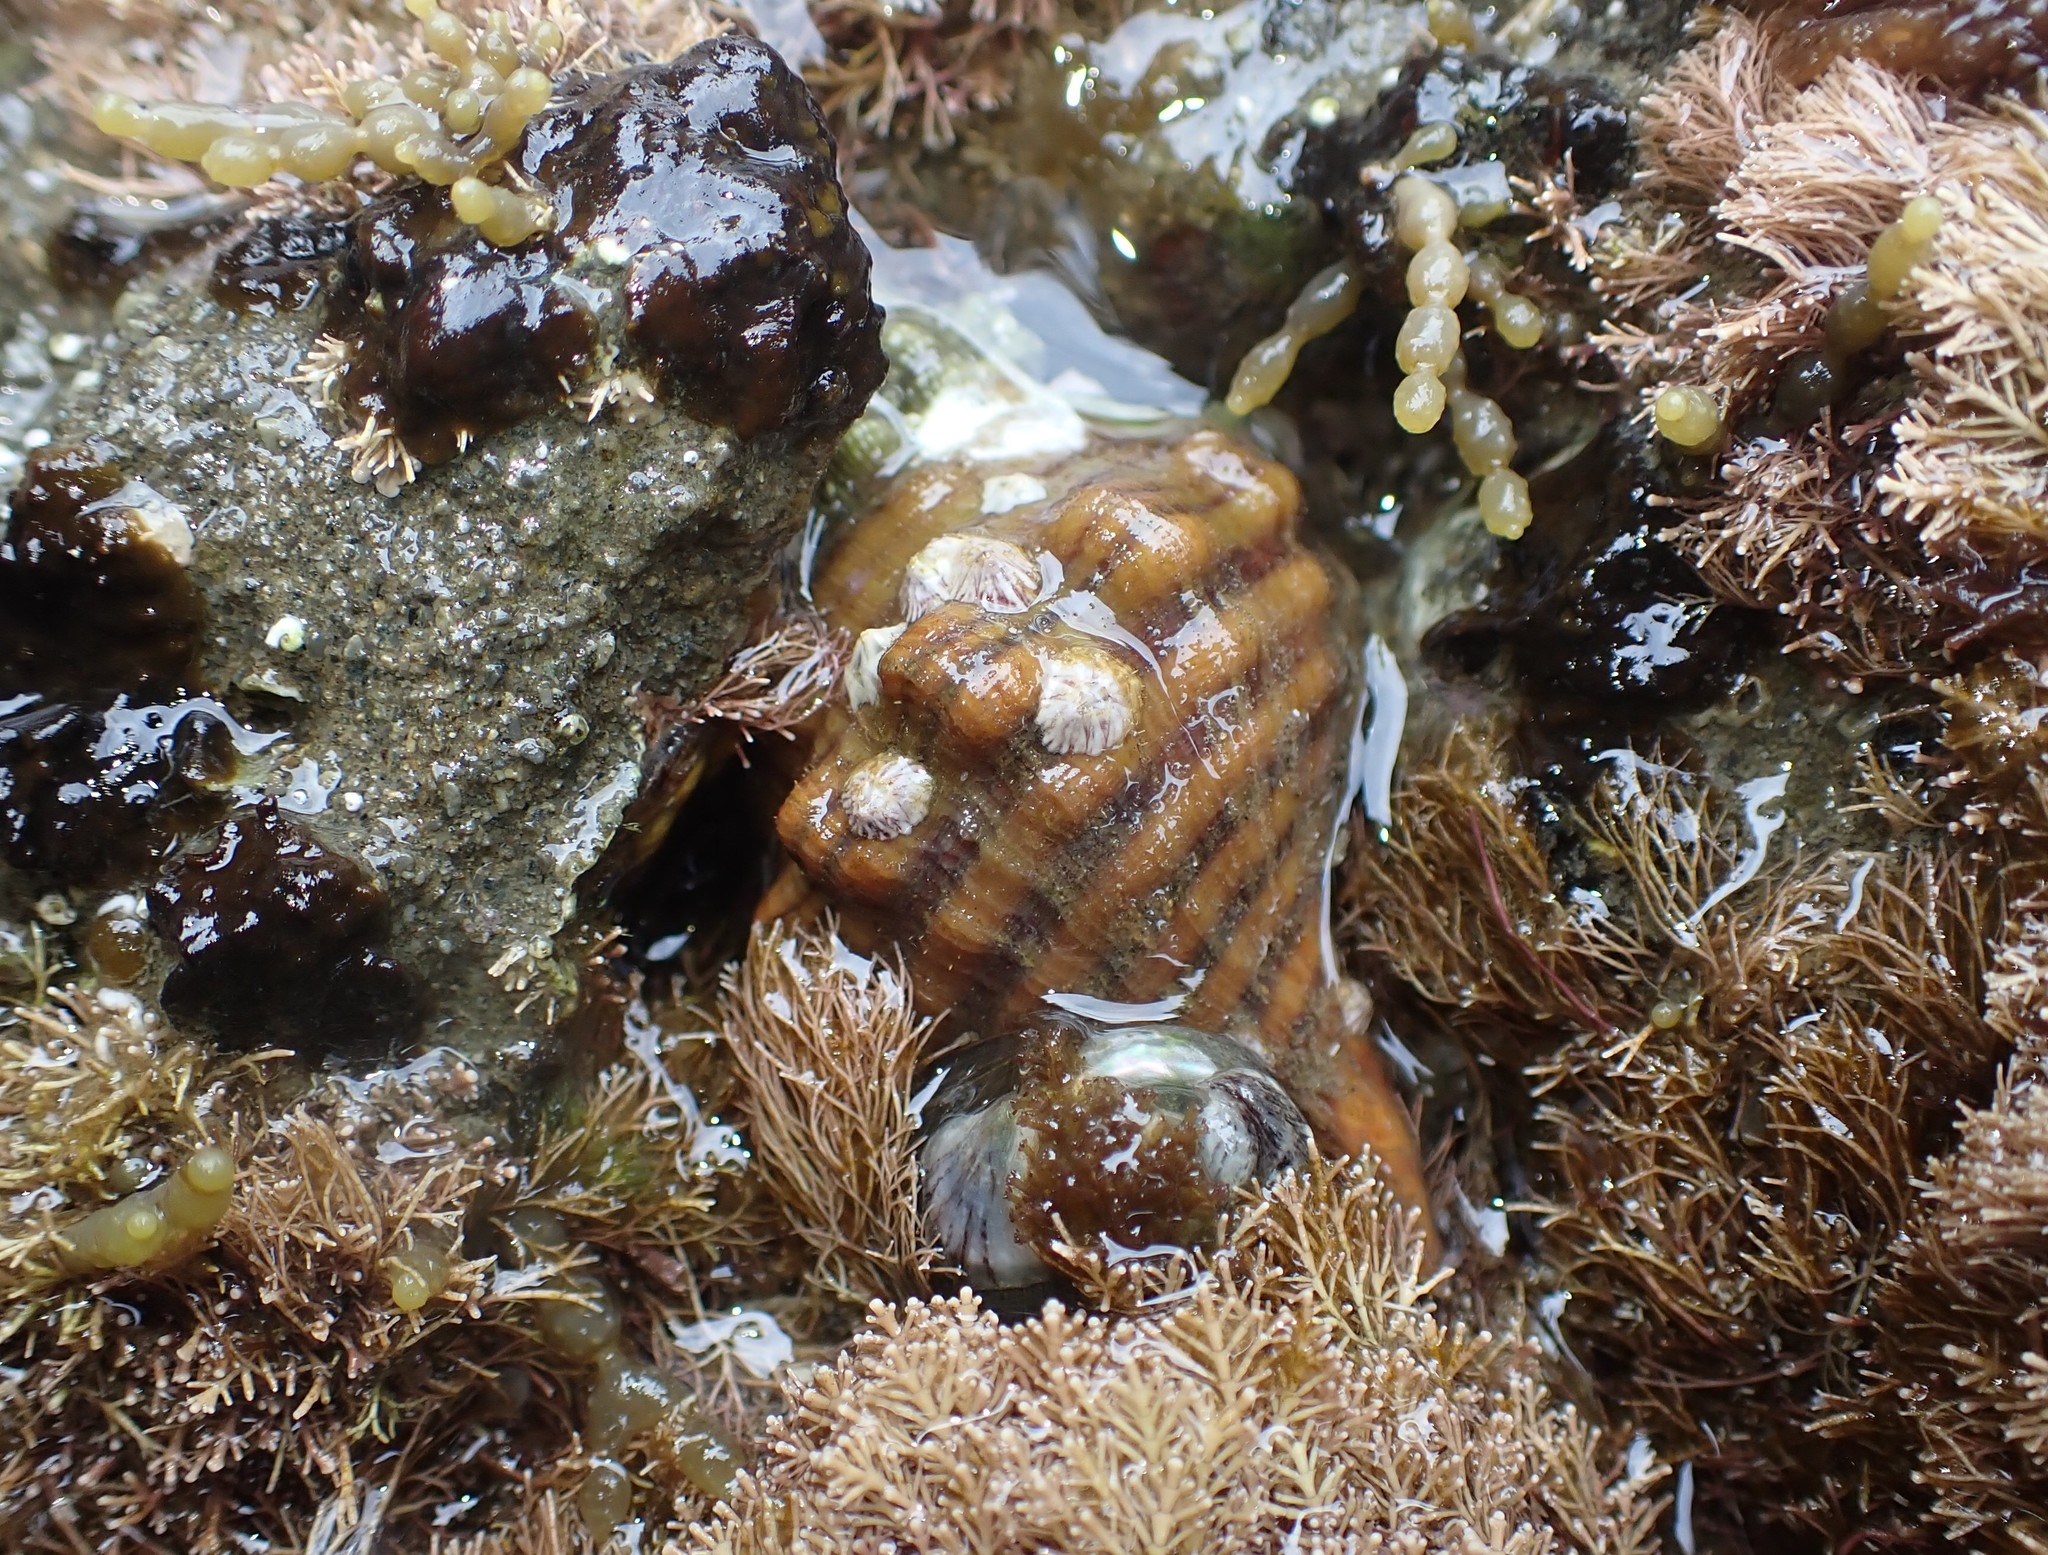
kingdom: Animalia
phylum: Mollusca
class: Gastropoda
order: Littorinimorpha
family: Cymatiidae
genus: Cabestana
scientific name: Cabestana spengleri
